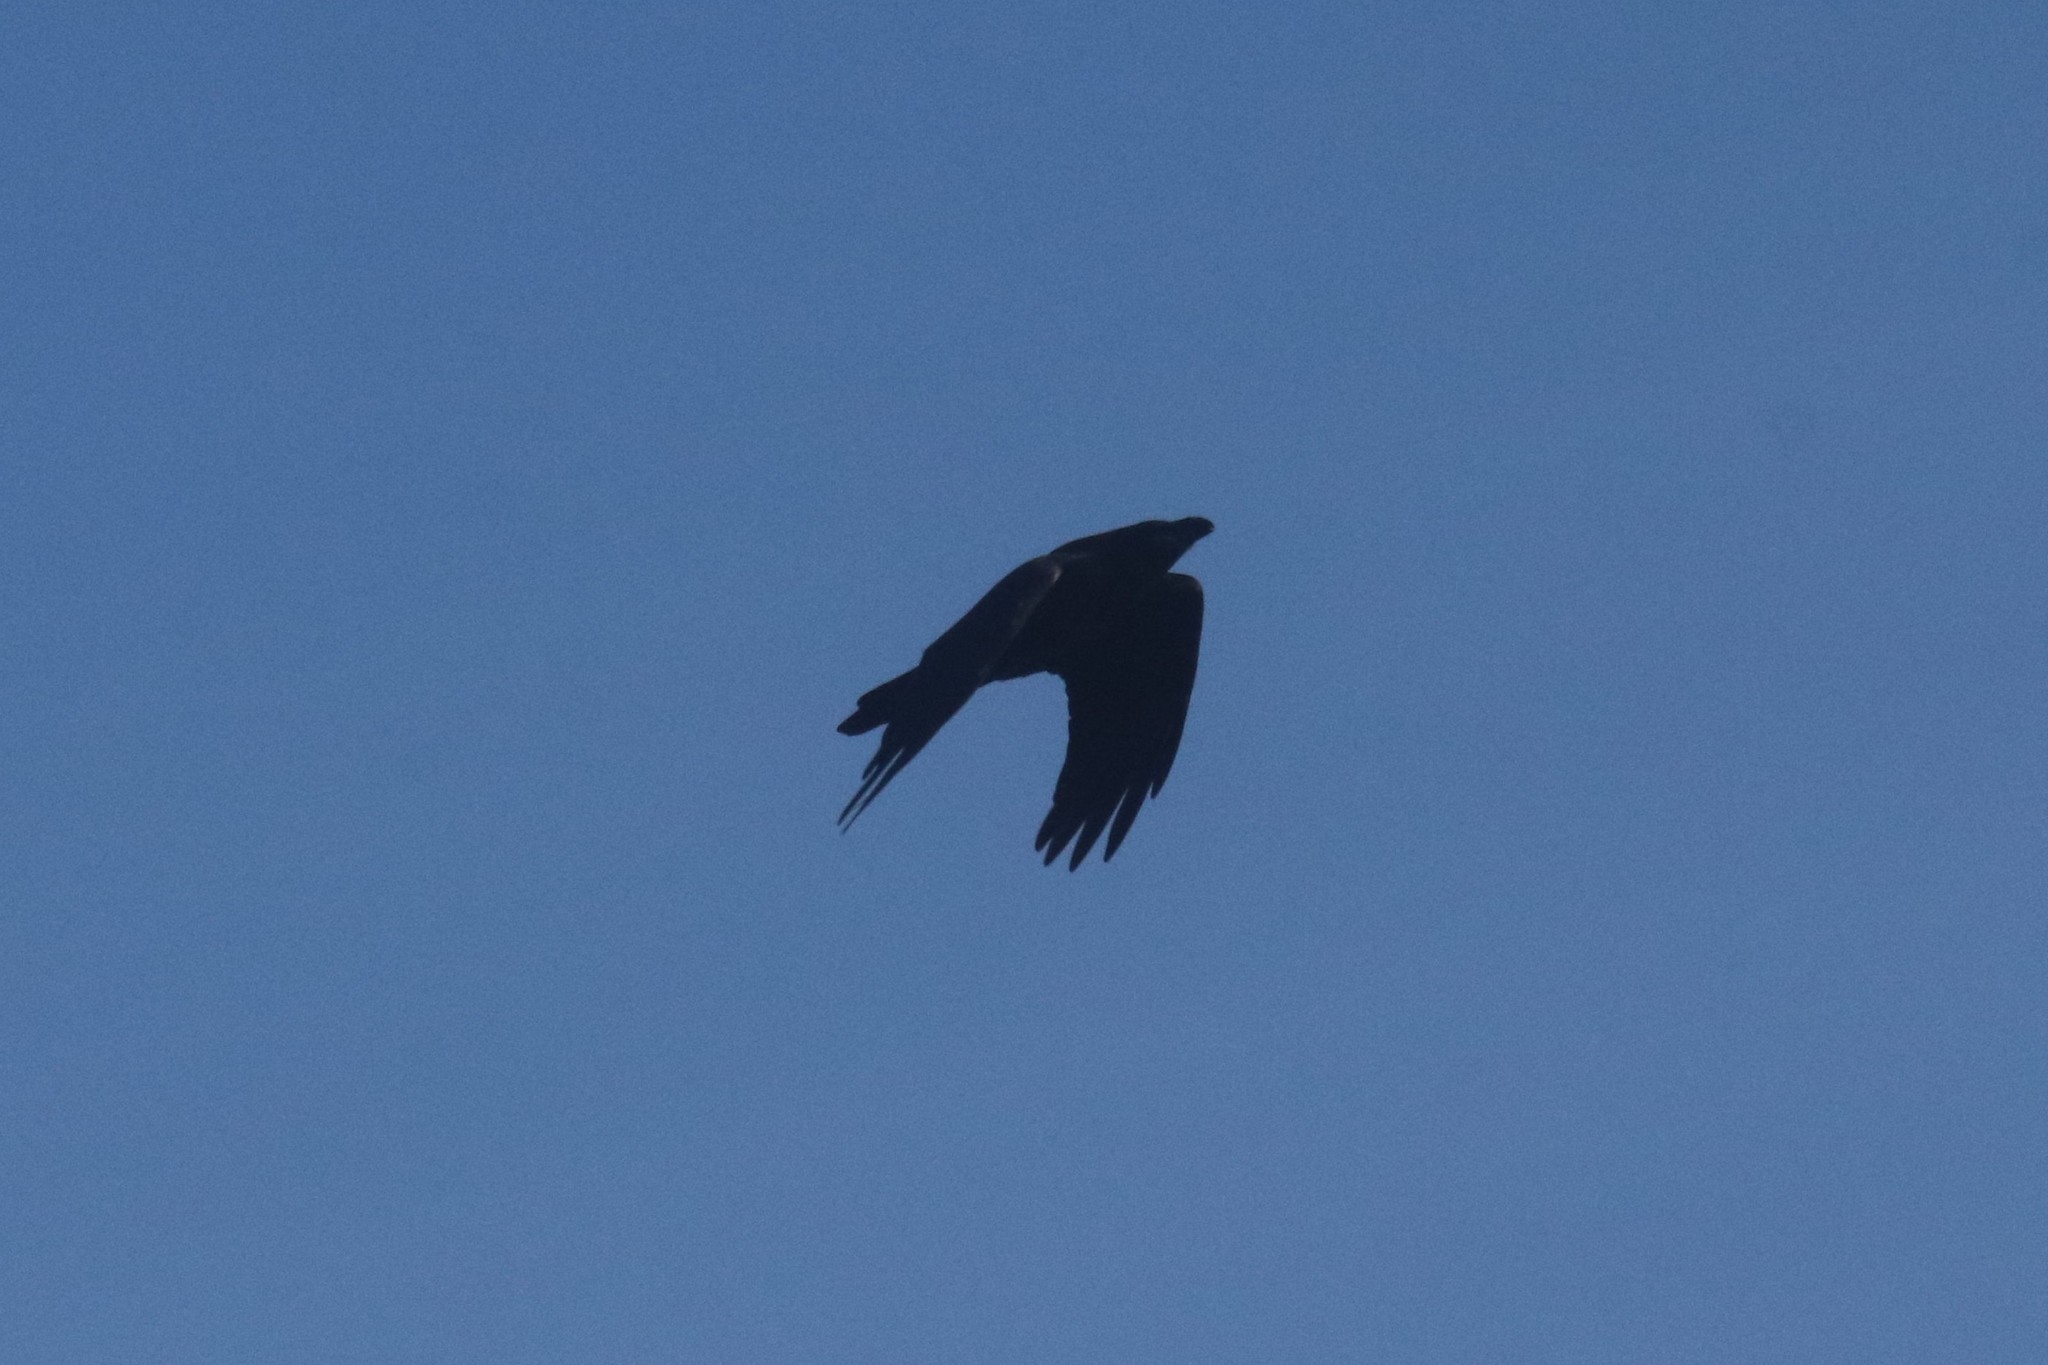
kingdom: Animalia
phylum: Chordata
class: Aves
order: Passeriformes
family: Corvidae
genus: Corvus
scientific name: Corvus corax
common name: Common raven
